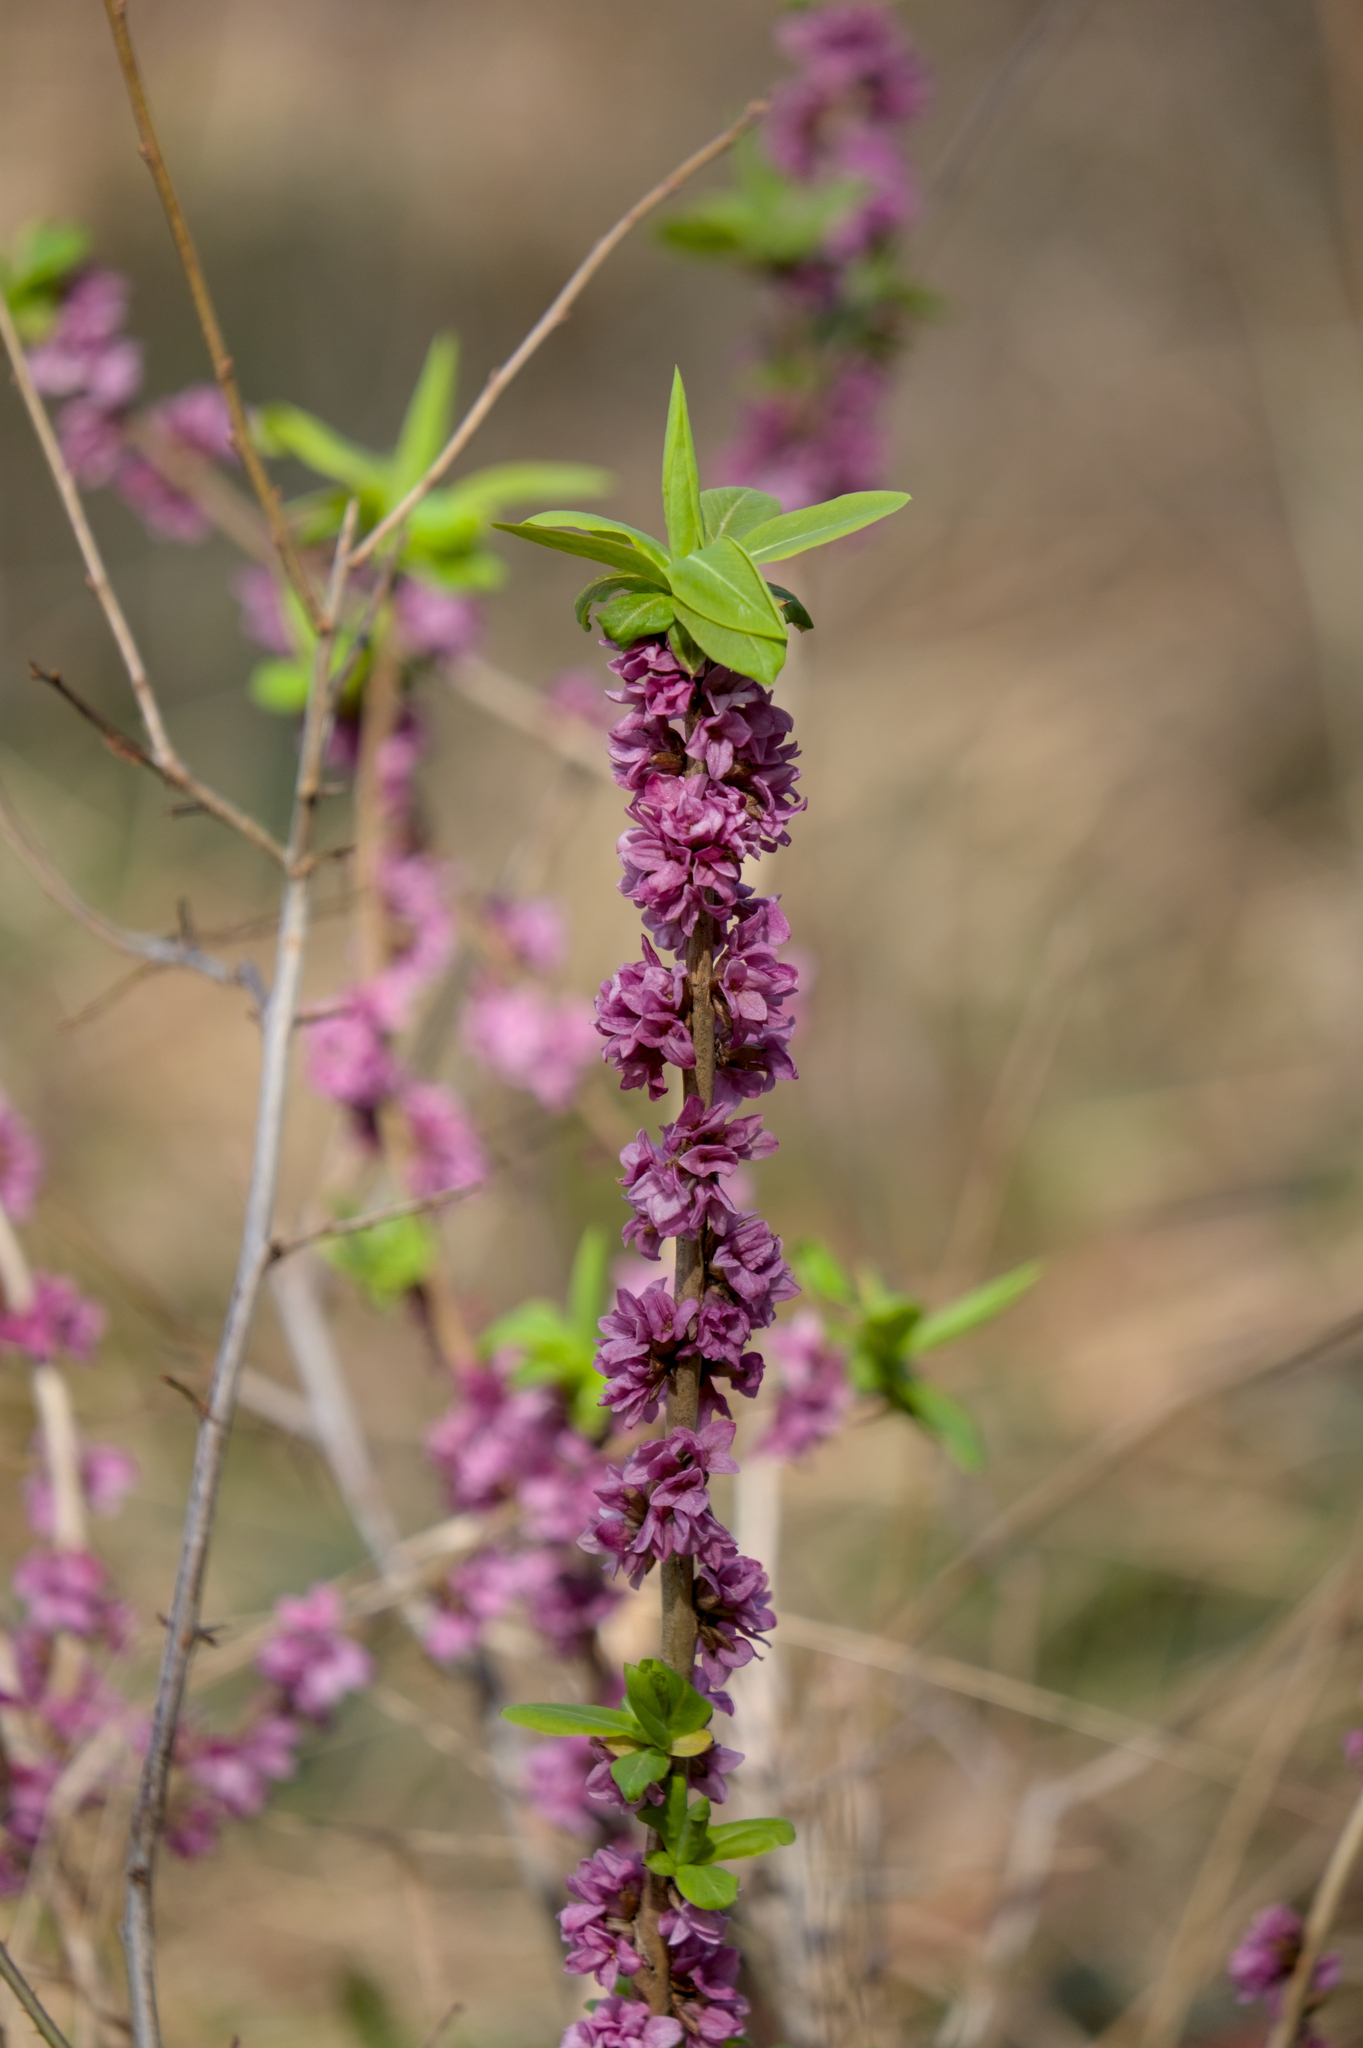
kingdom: Plantae
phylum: Tracheophyta
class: Magnoliopsida
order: Malvales
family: Thymelaeaceae
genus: Daphne
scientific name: Daphne mezereum
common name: Mezereon
